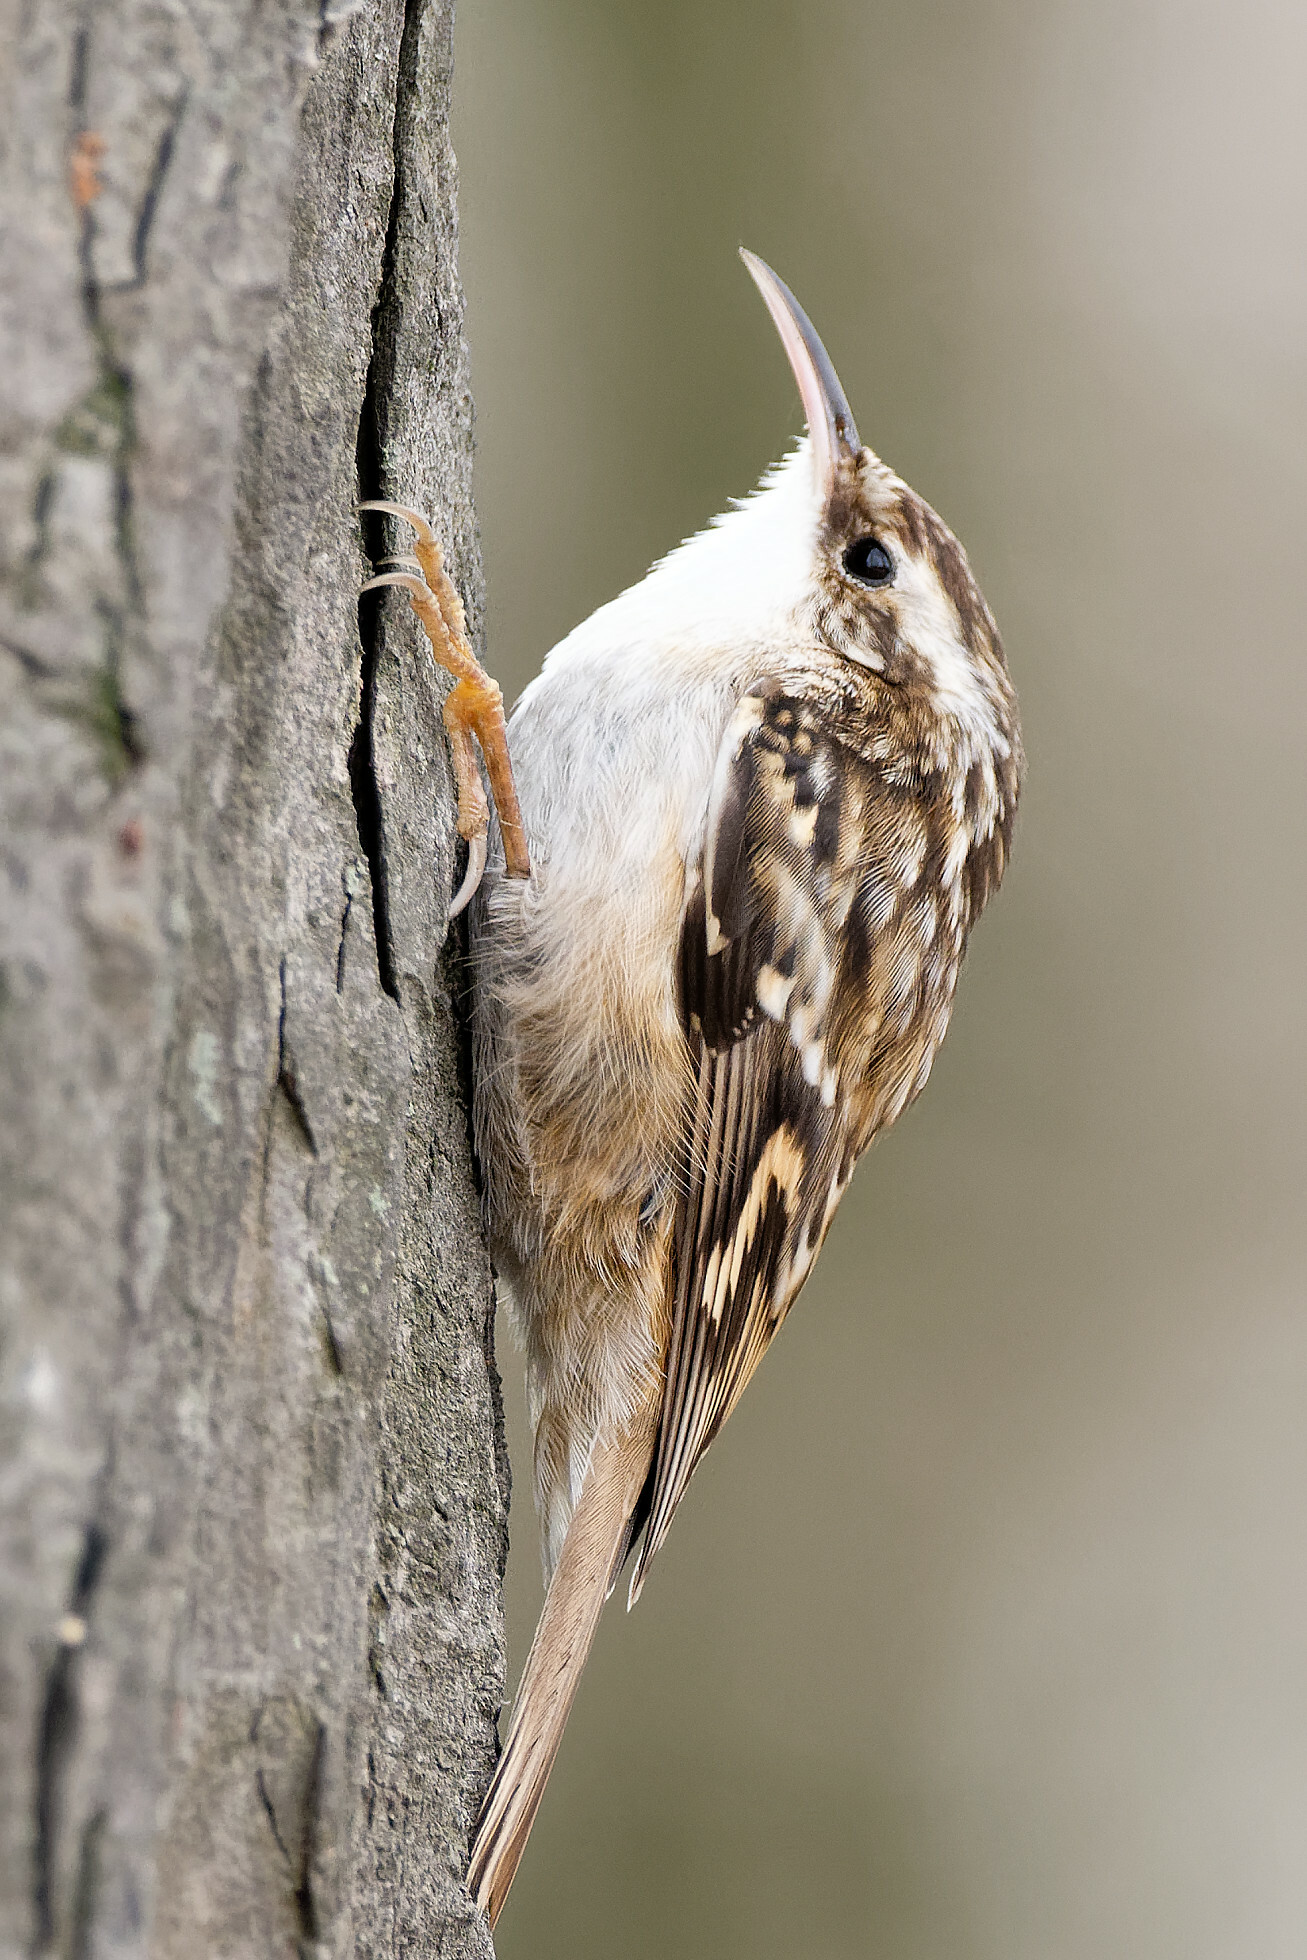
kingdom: Animalia
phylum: Chordata
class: Aves
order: Passeriformes
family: Certhiidae
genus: Certhia
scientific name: Certhia brachydactyla
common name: Short-toed treecreeper
